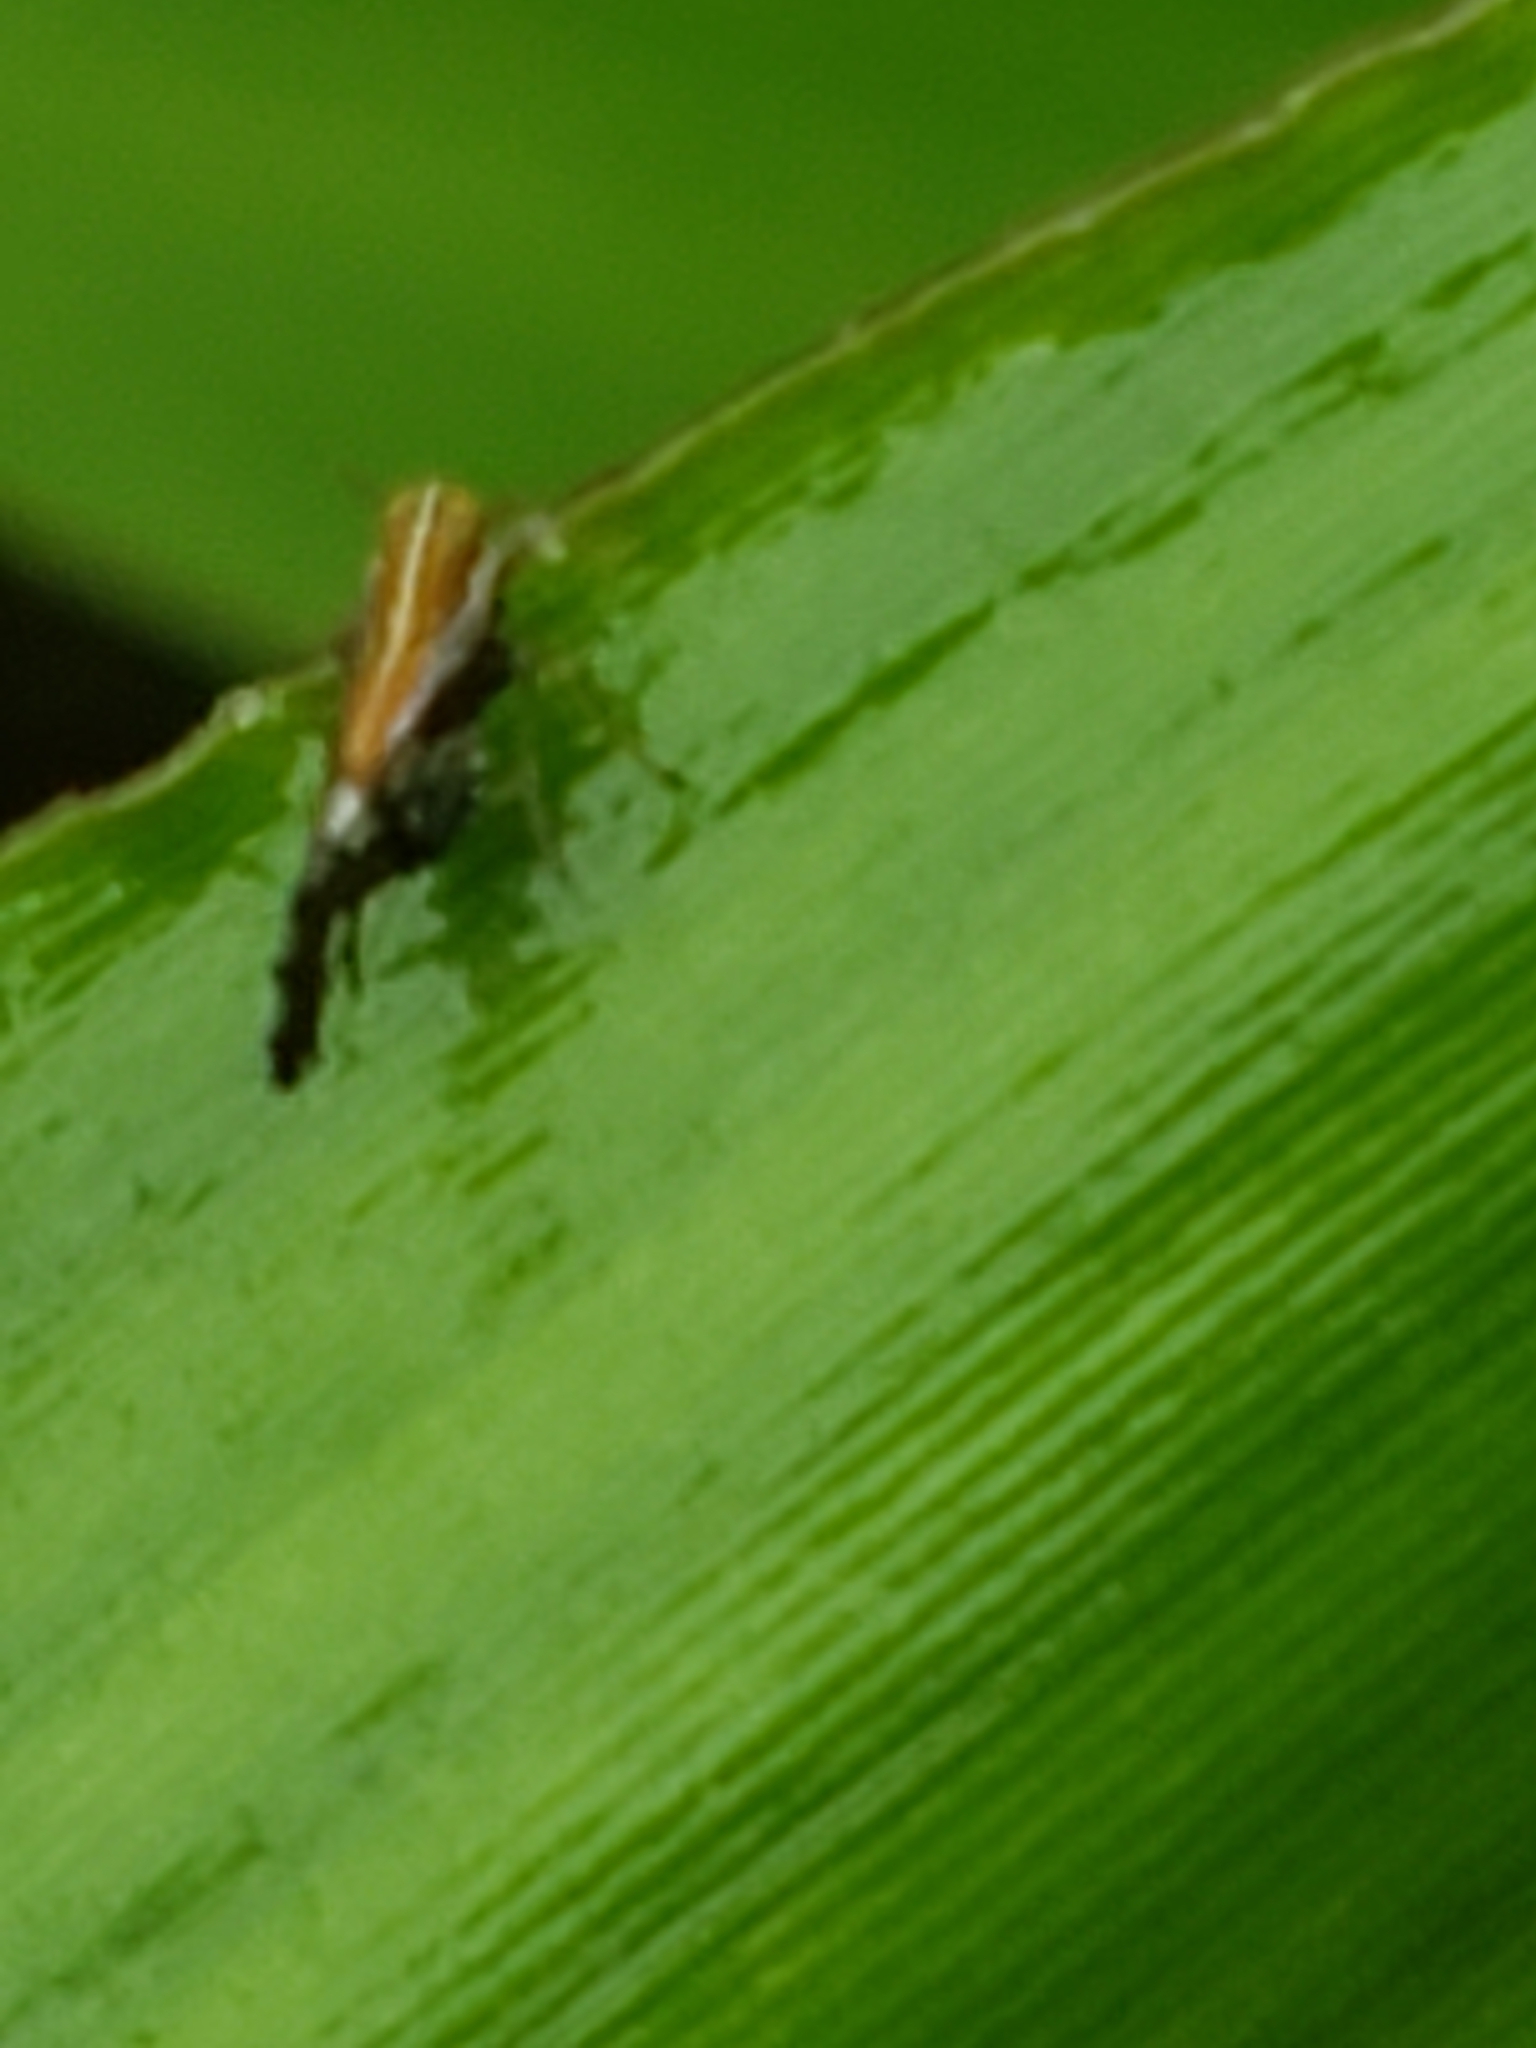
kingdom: Animalia
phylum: Arthropoda
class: Insecta
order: Hemiptera
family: Delphacidae
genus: Liburniella
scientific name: Liburniella ornata
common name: Ornate planthopper
